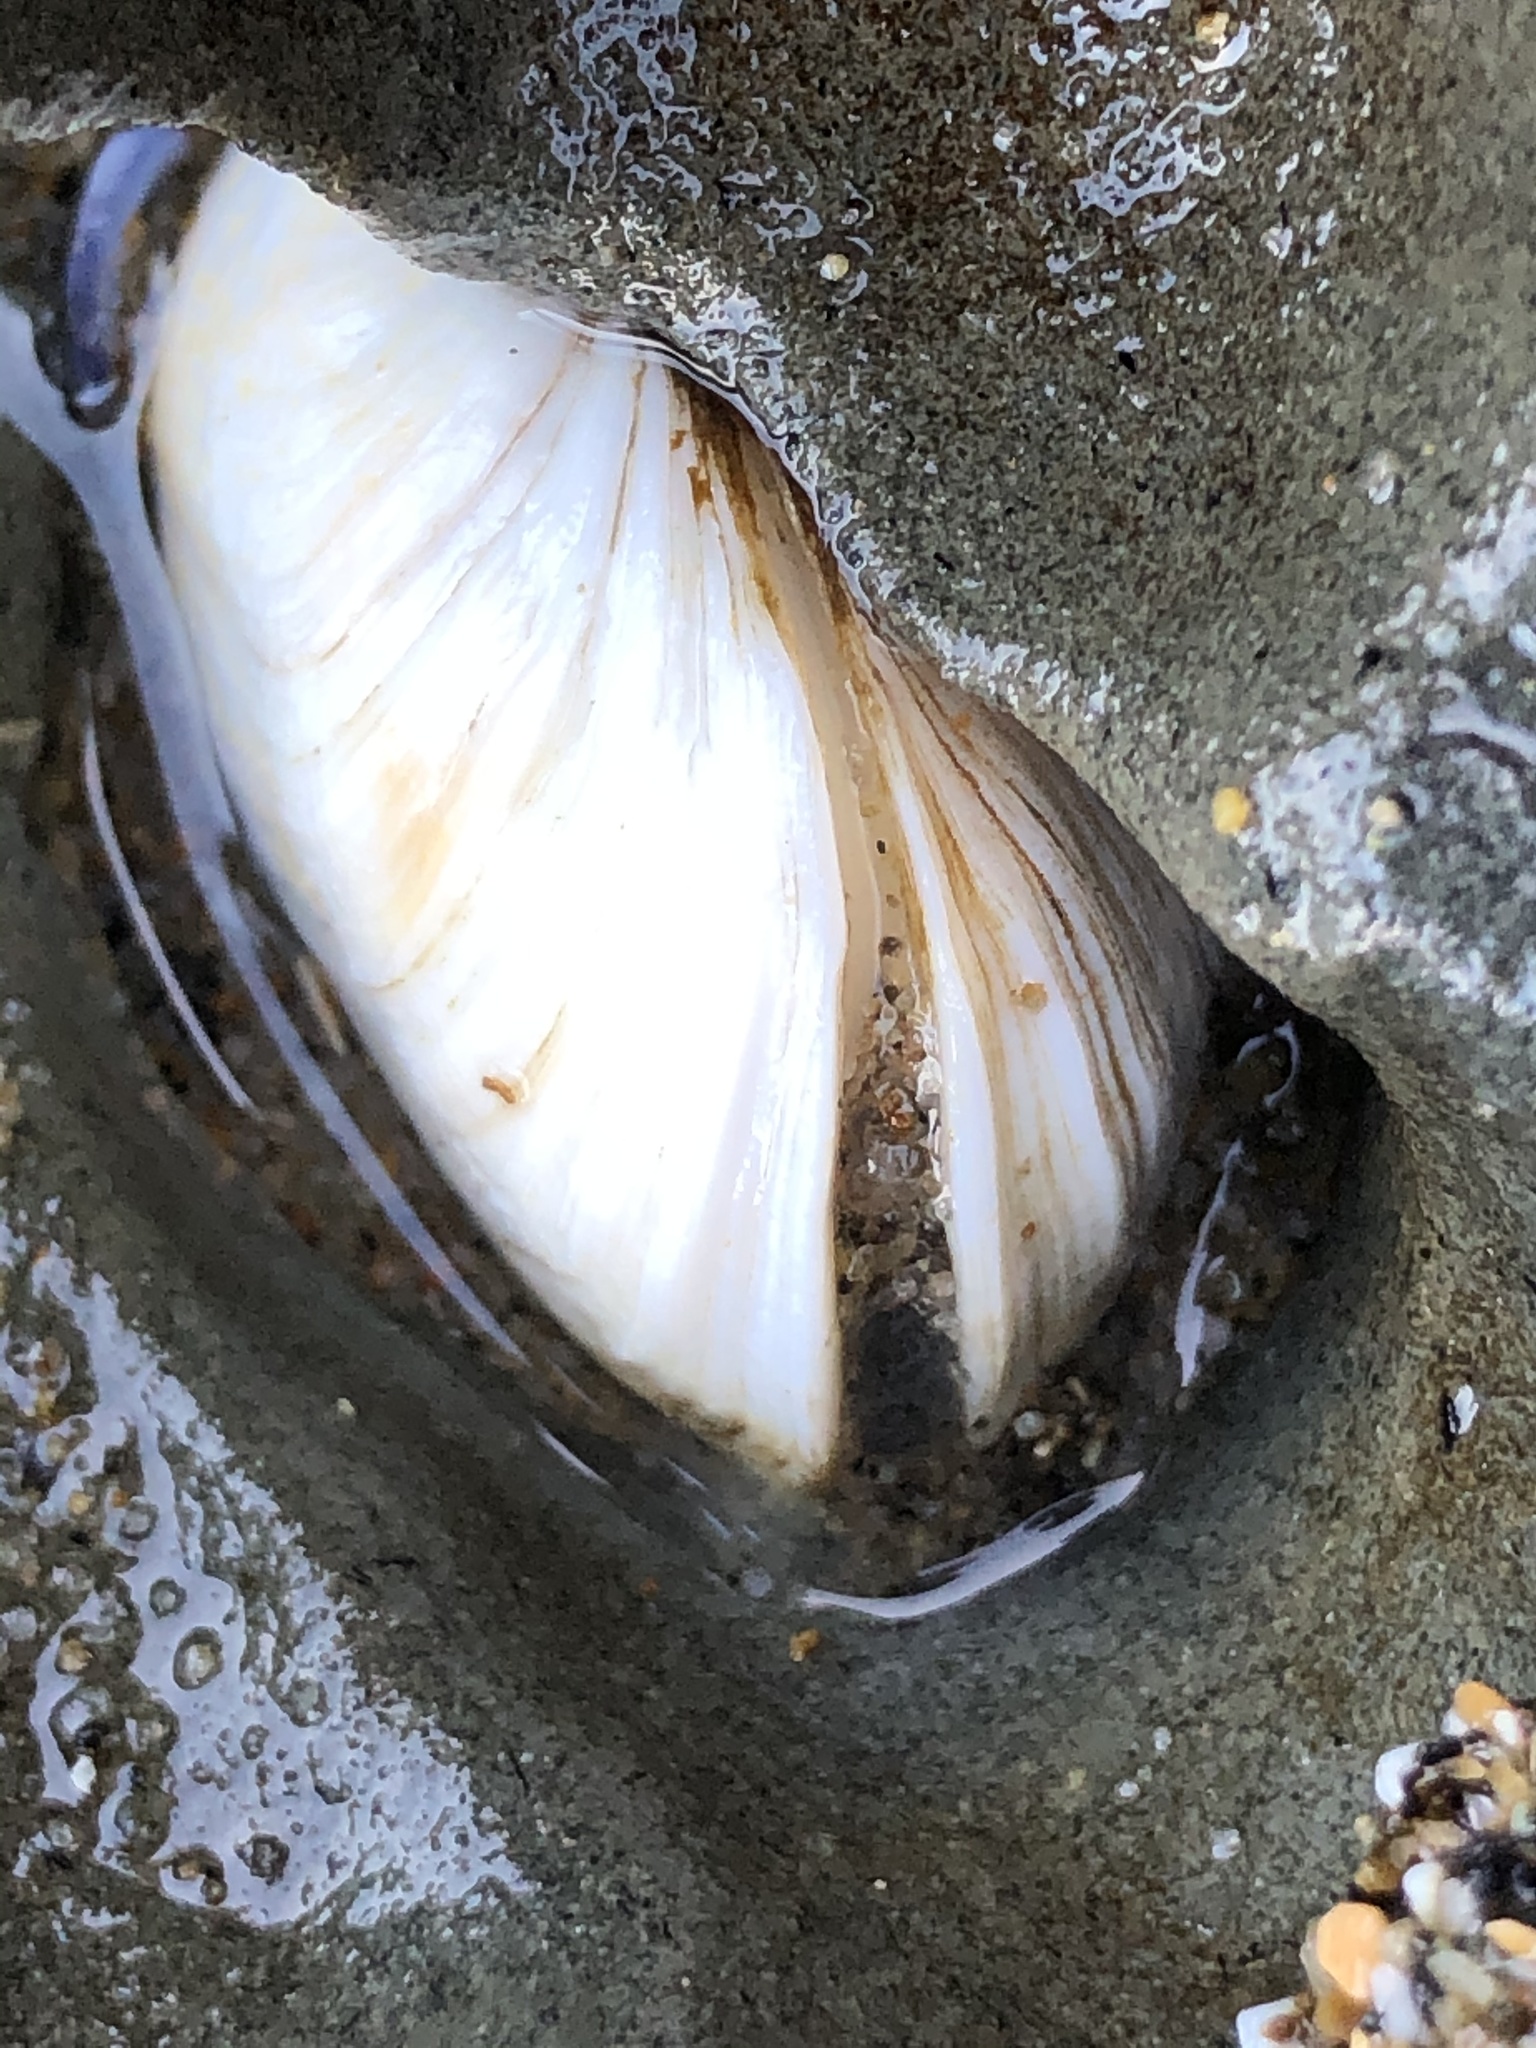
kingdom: Animalia
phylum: Mollusca
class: Bivalvia
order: Venerida
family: Veneridae
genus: Petricola
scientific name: Petricola carditoides
